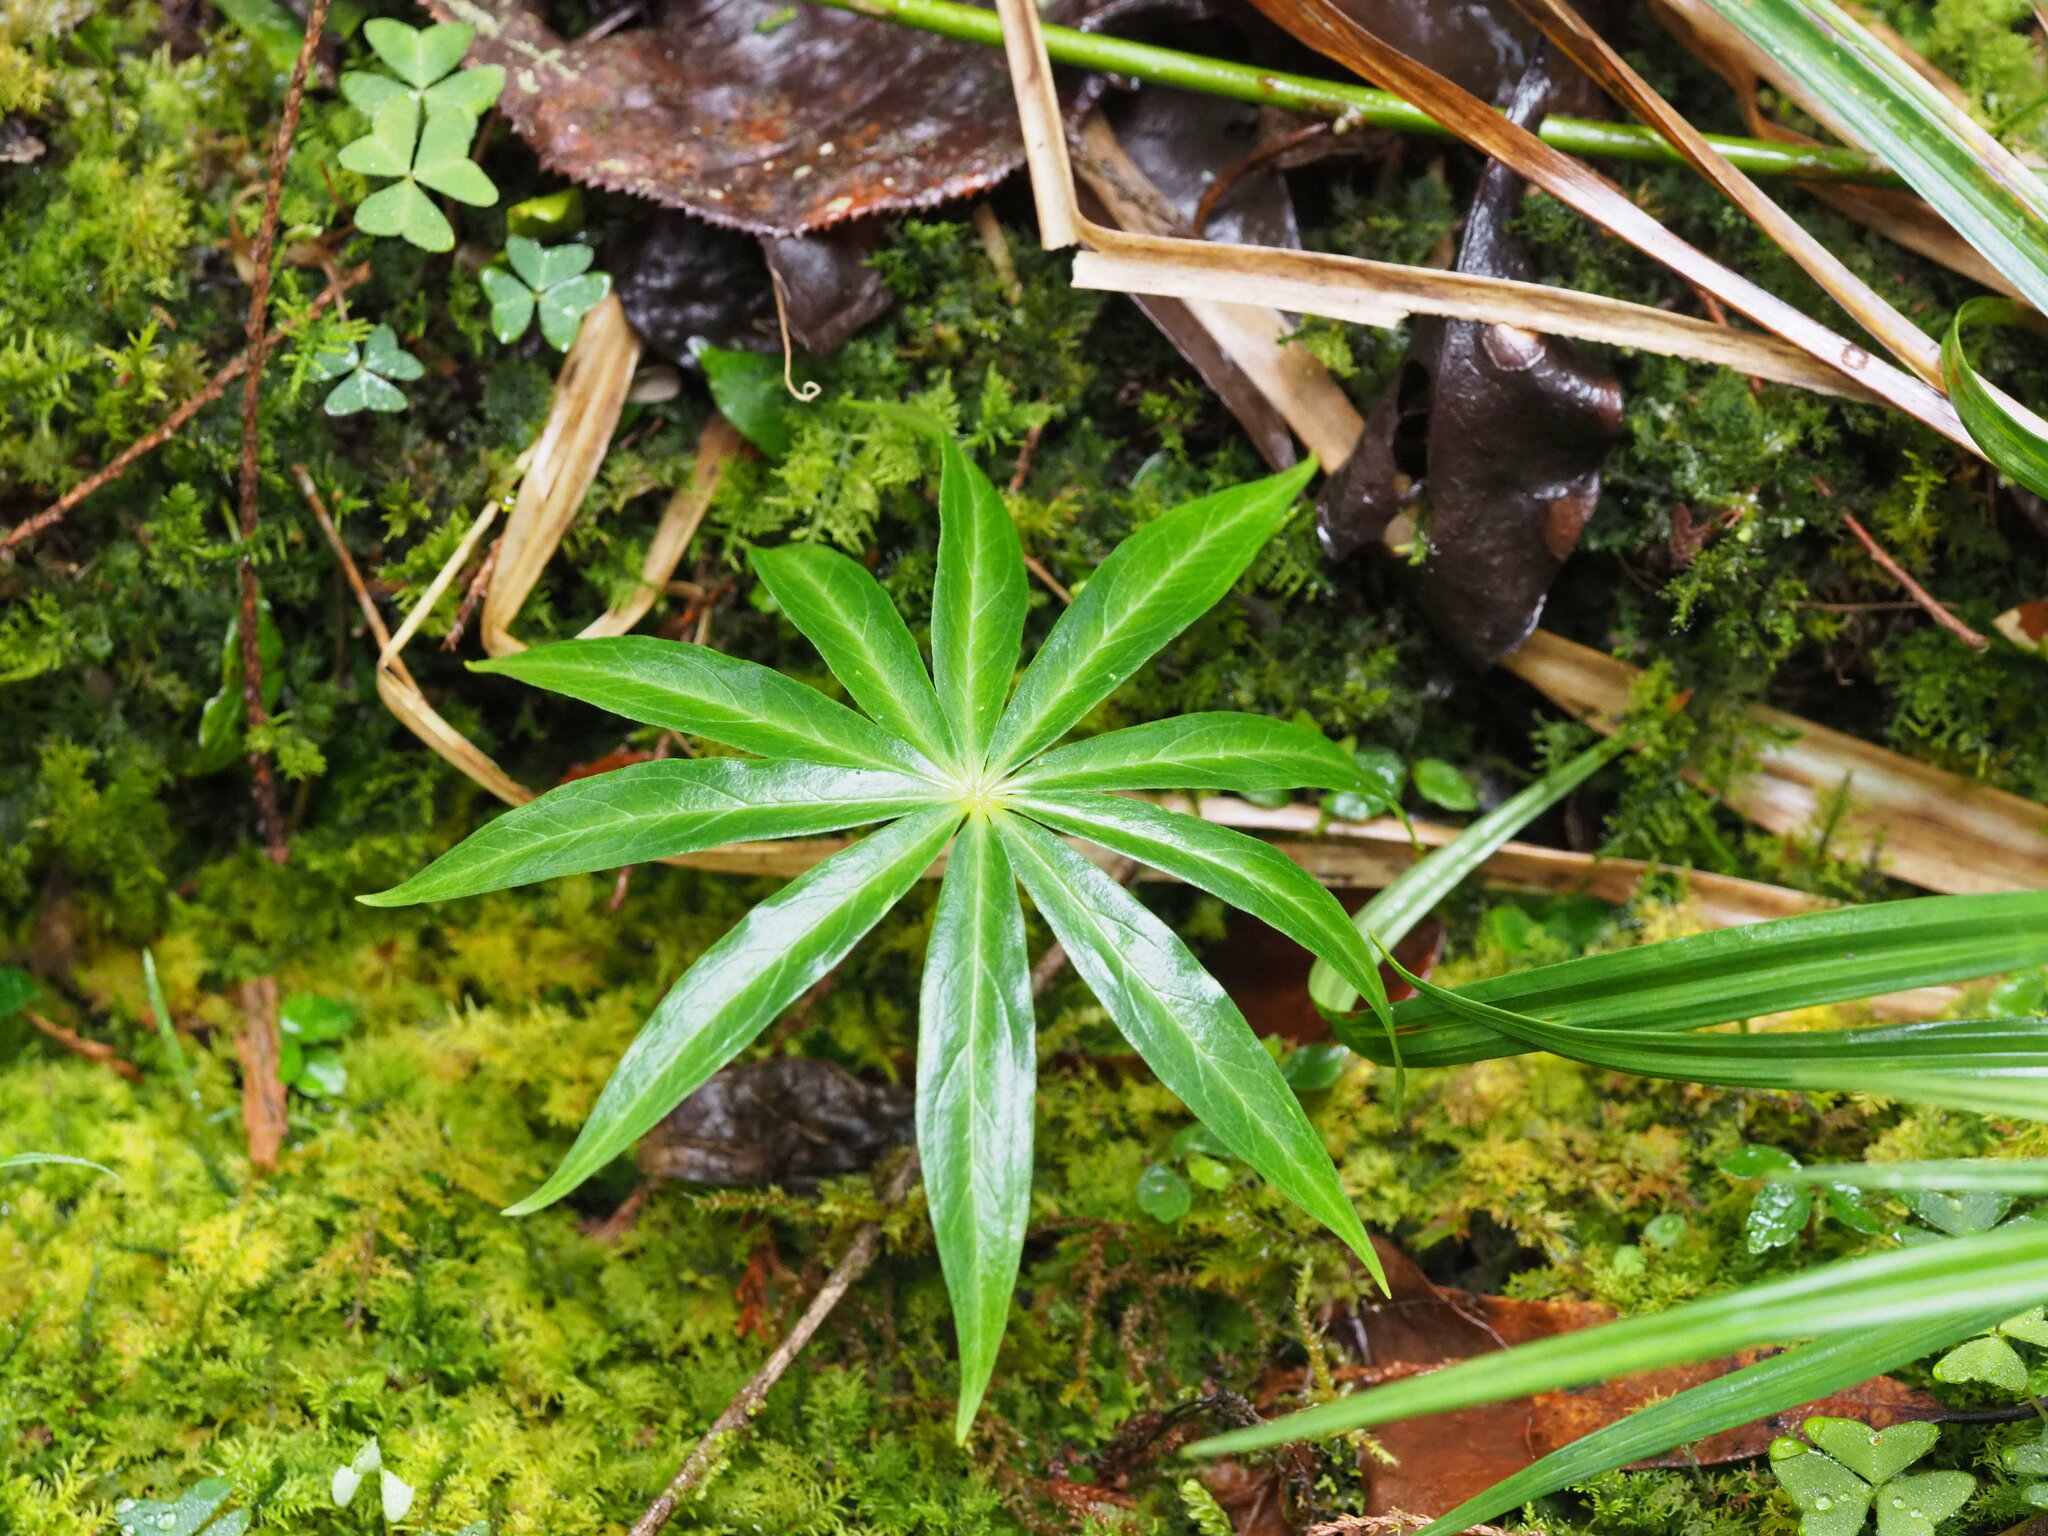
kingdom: Plantae
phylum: Tracheophyta
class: Liliopsida
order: Liliales
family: Melanthiaceae
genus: Paris
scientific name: Paris polyphylla
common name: Love apple
